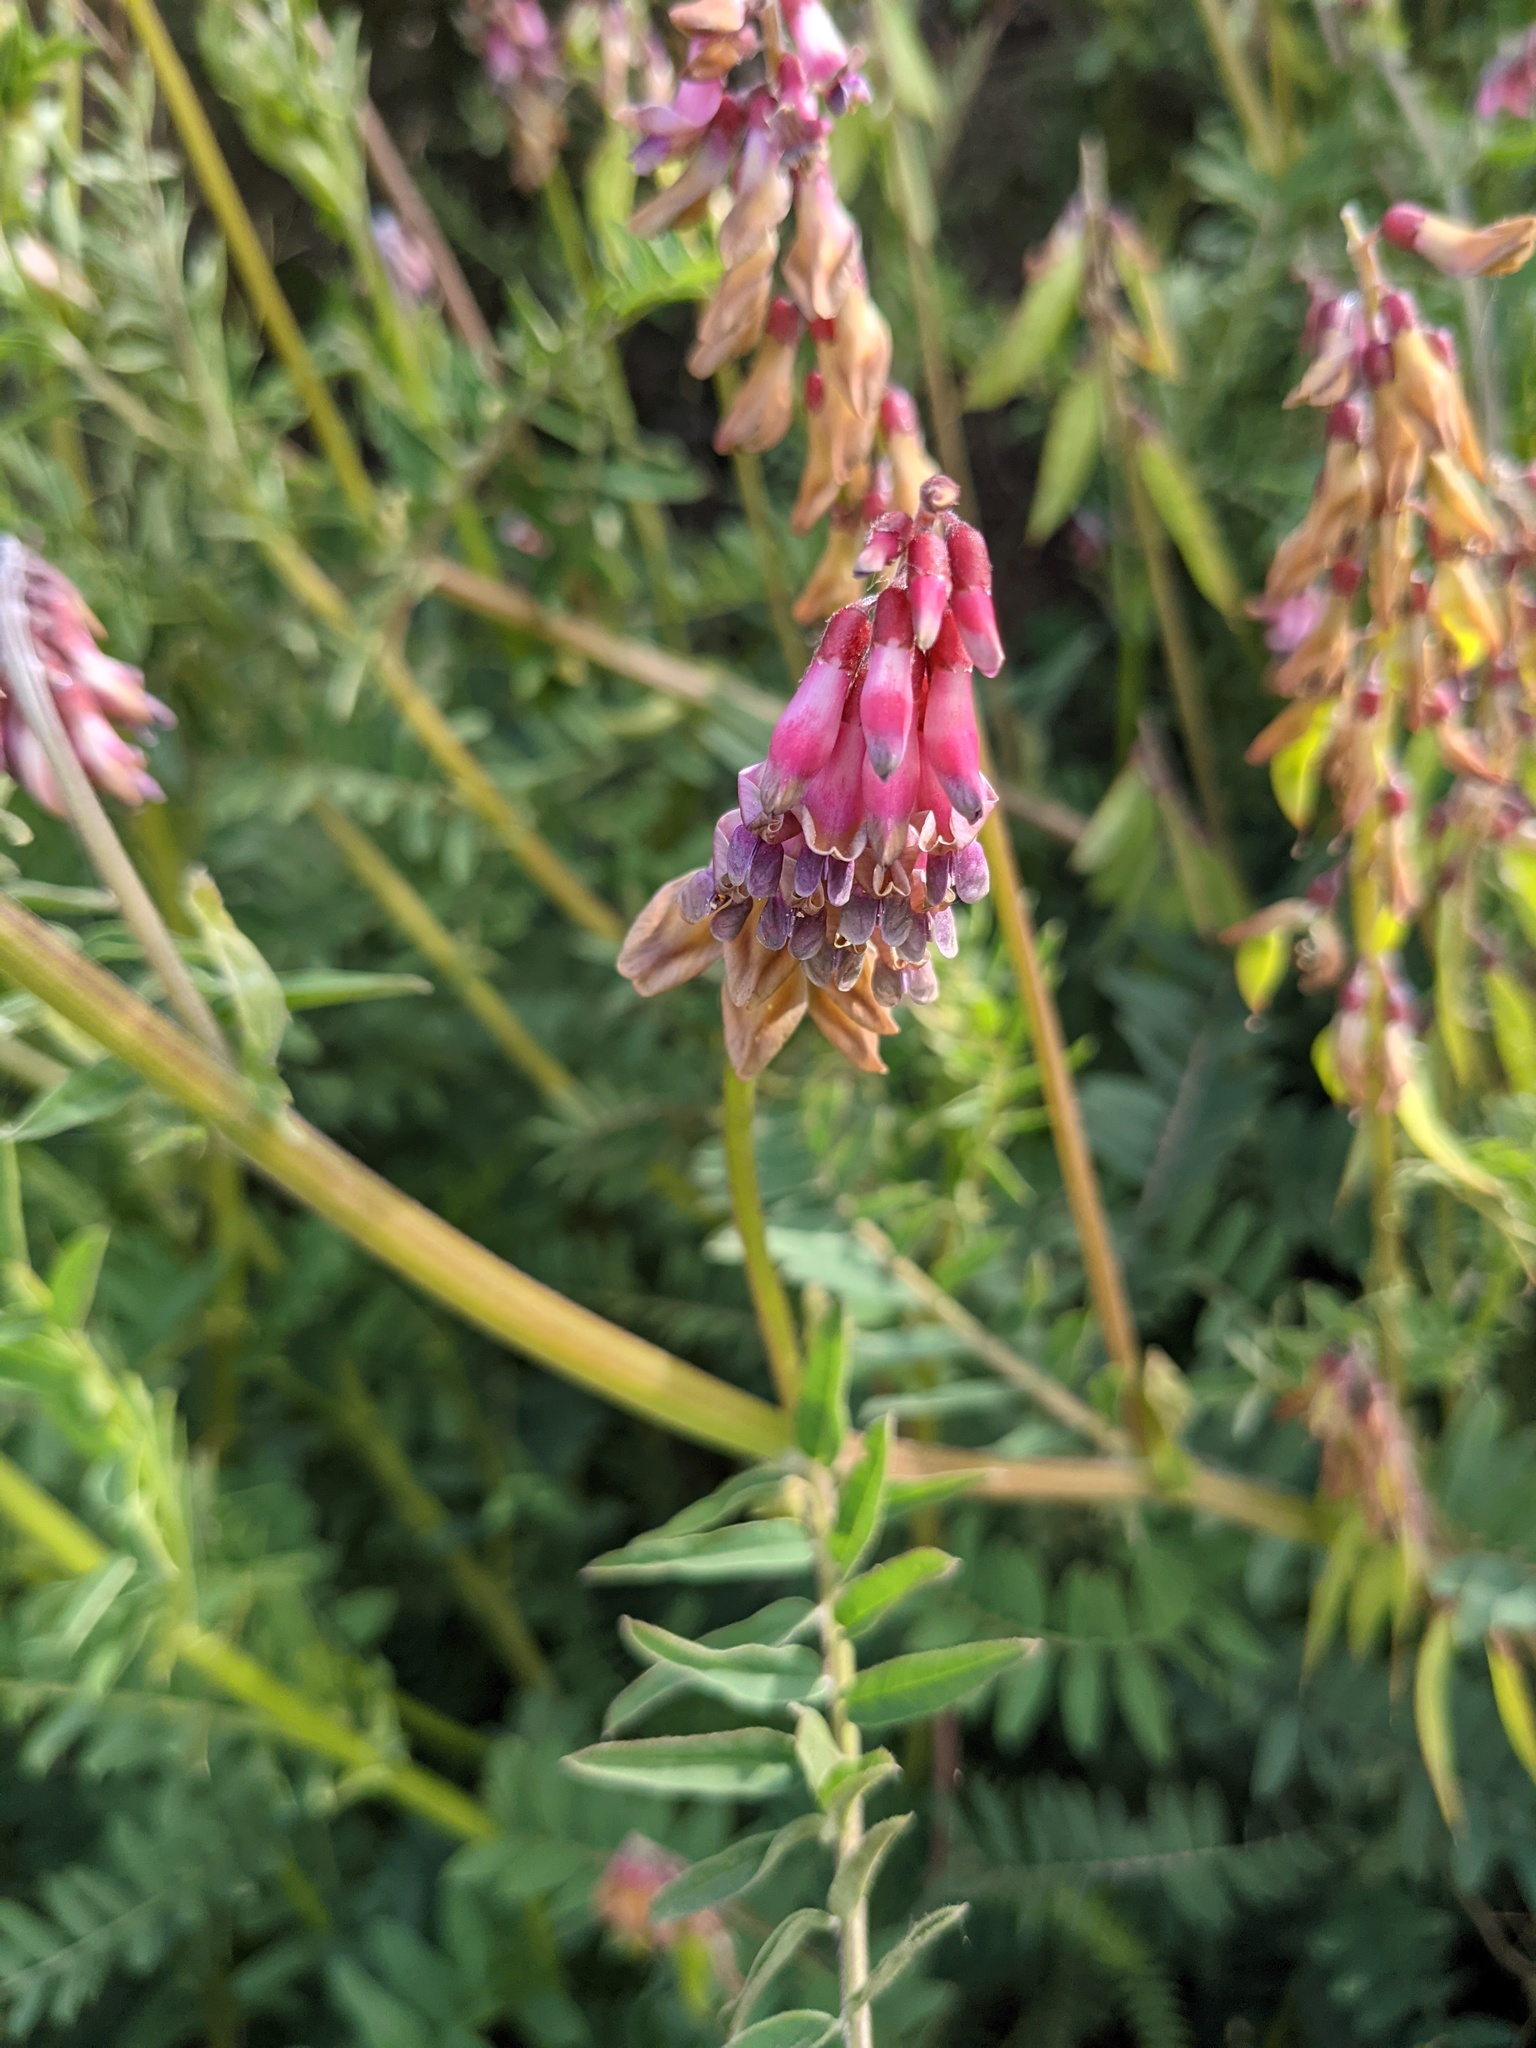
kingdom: Plantae
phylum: Tracheophyta
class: Magnoliopsida
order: Fabales
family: Fabaceae
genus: Vicia
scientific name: Vicia
